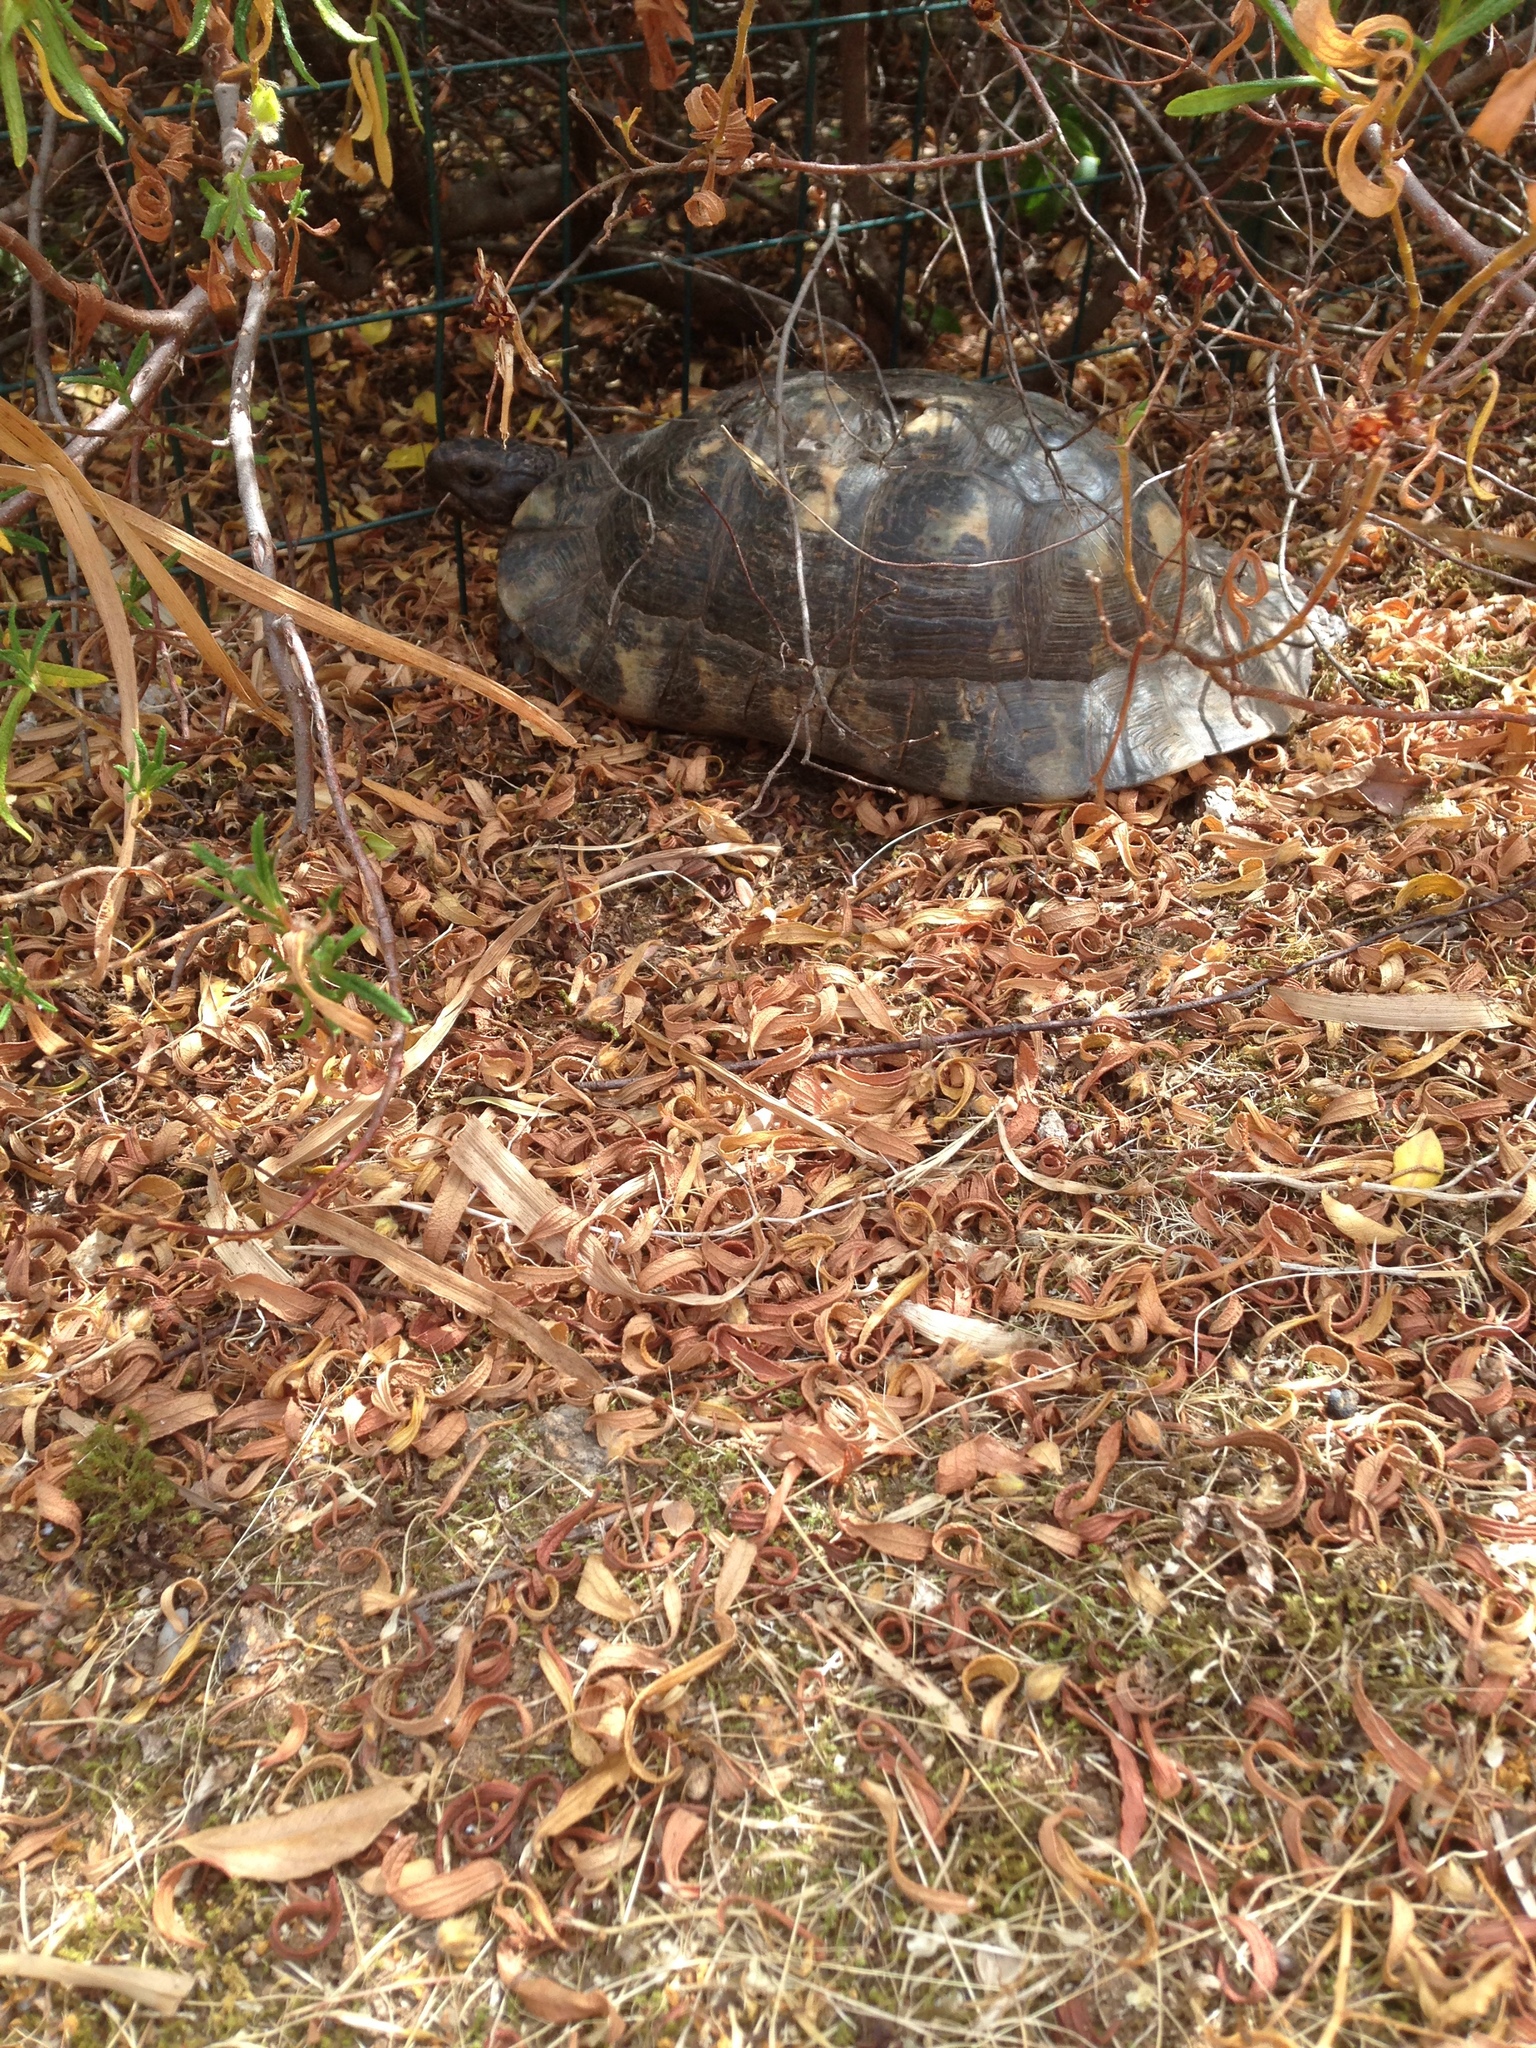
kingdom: Animalia
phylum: Chordata
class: Testudines
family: Testudinidae
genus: Testudo
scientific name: Testudo marginata
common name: Marginated tortoise
